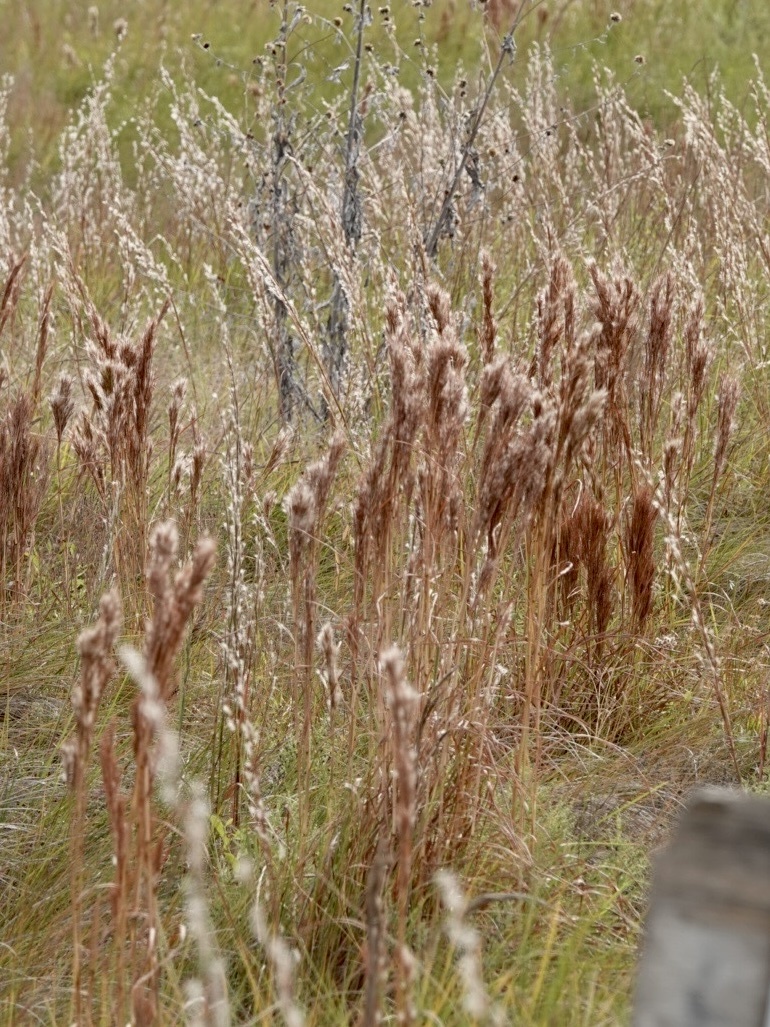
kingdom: Plantae
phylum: Tracheophyta
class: Liliopsida
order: Poales
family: Poaceae
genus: Andropogon
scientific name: Andropogon tenuispatheus
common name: Bushy bluestem
